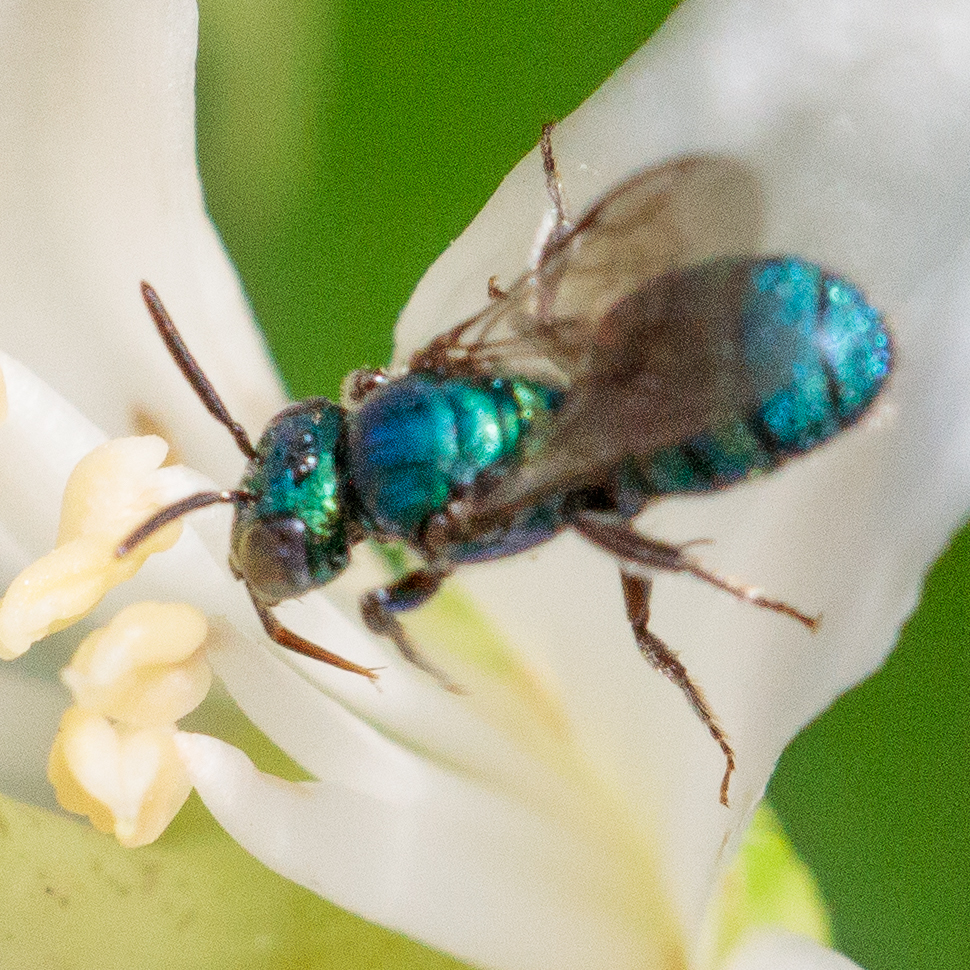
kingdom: Animalia
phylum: Arthropoda
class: Insecta
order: Hymenoptera
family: Apidae
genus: Ceratina
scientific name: Ceratina cobaltina
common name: Small carpenter bee
